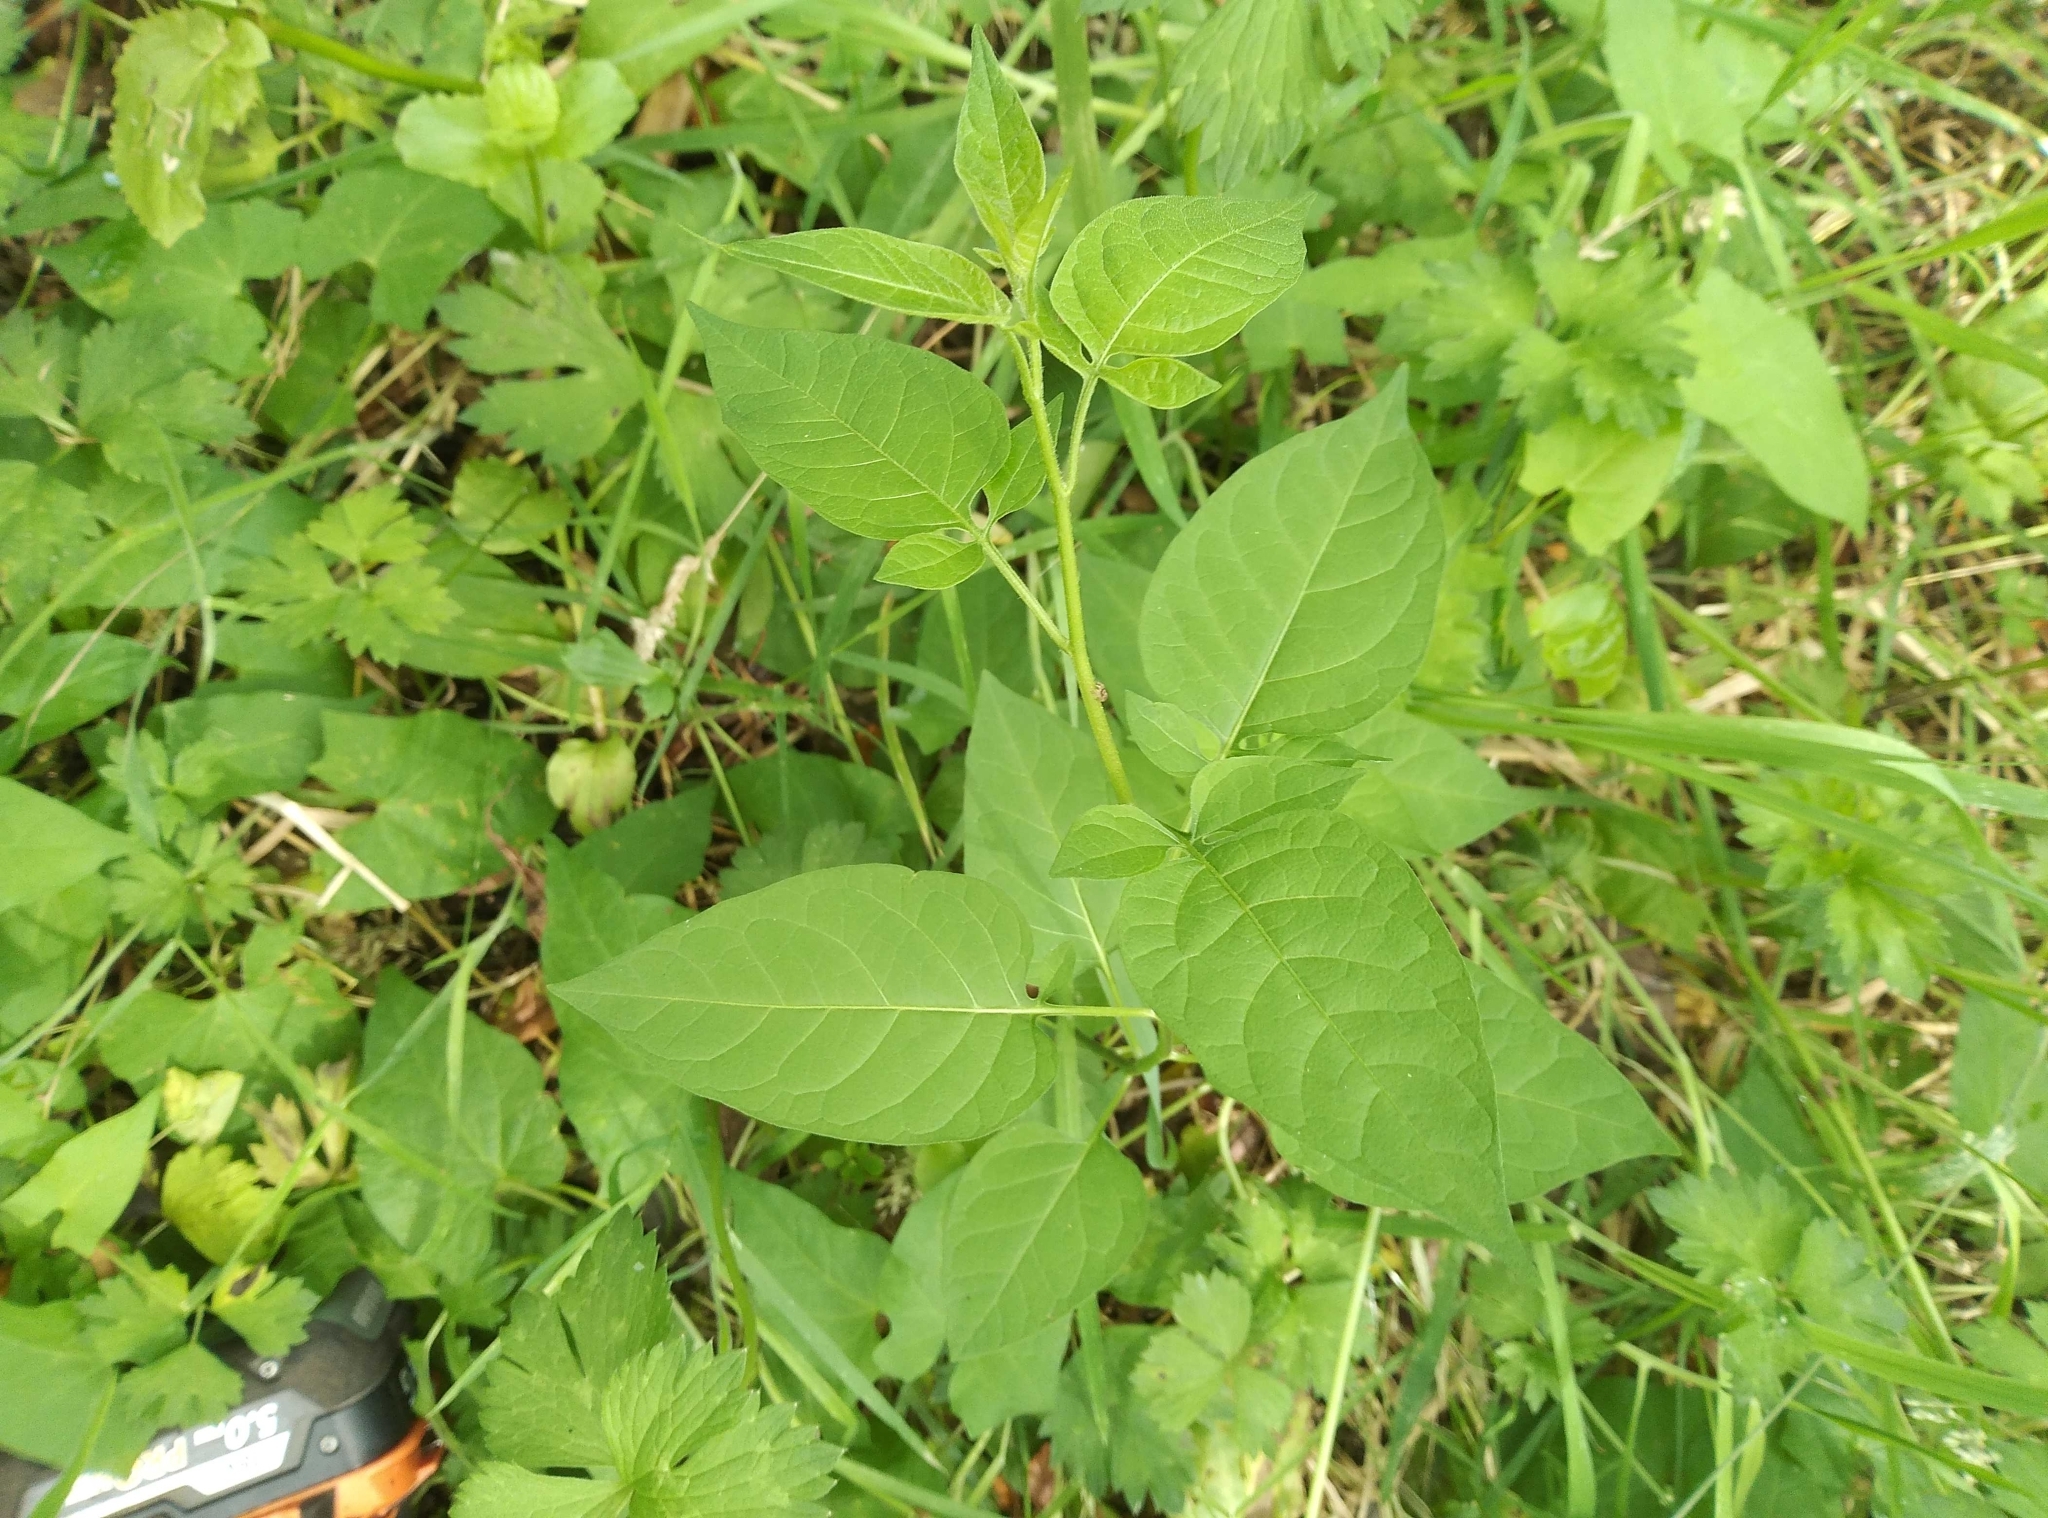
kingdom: Plantae
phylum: Tracheophyta
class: Magnoliopsida
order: Solanales
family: Solanaceae
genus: Solanum
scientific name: Solanum dulcamara
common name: Climbing nightshade
